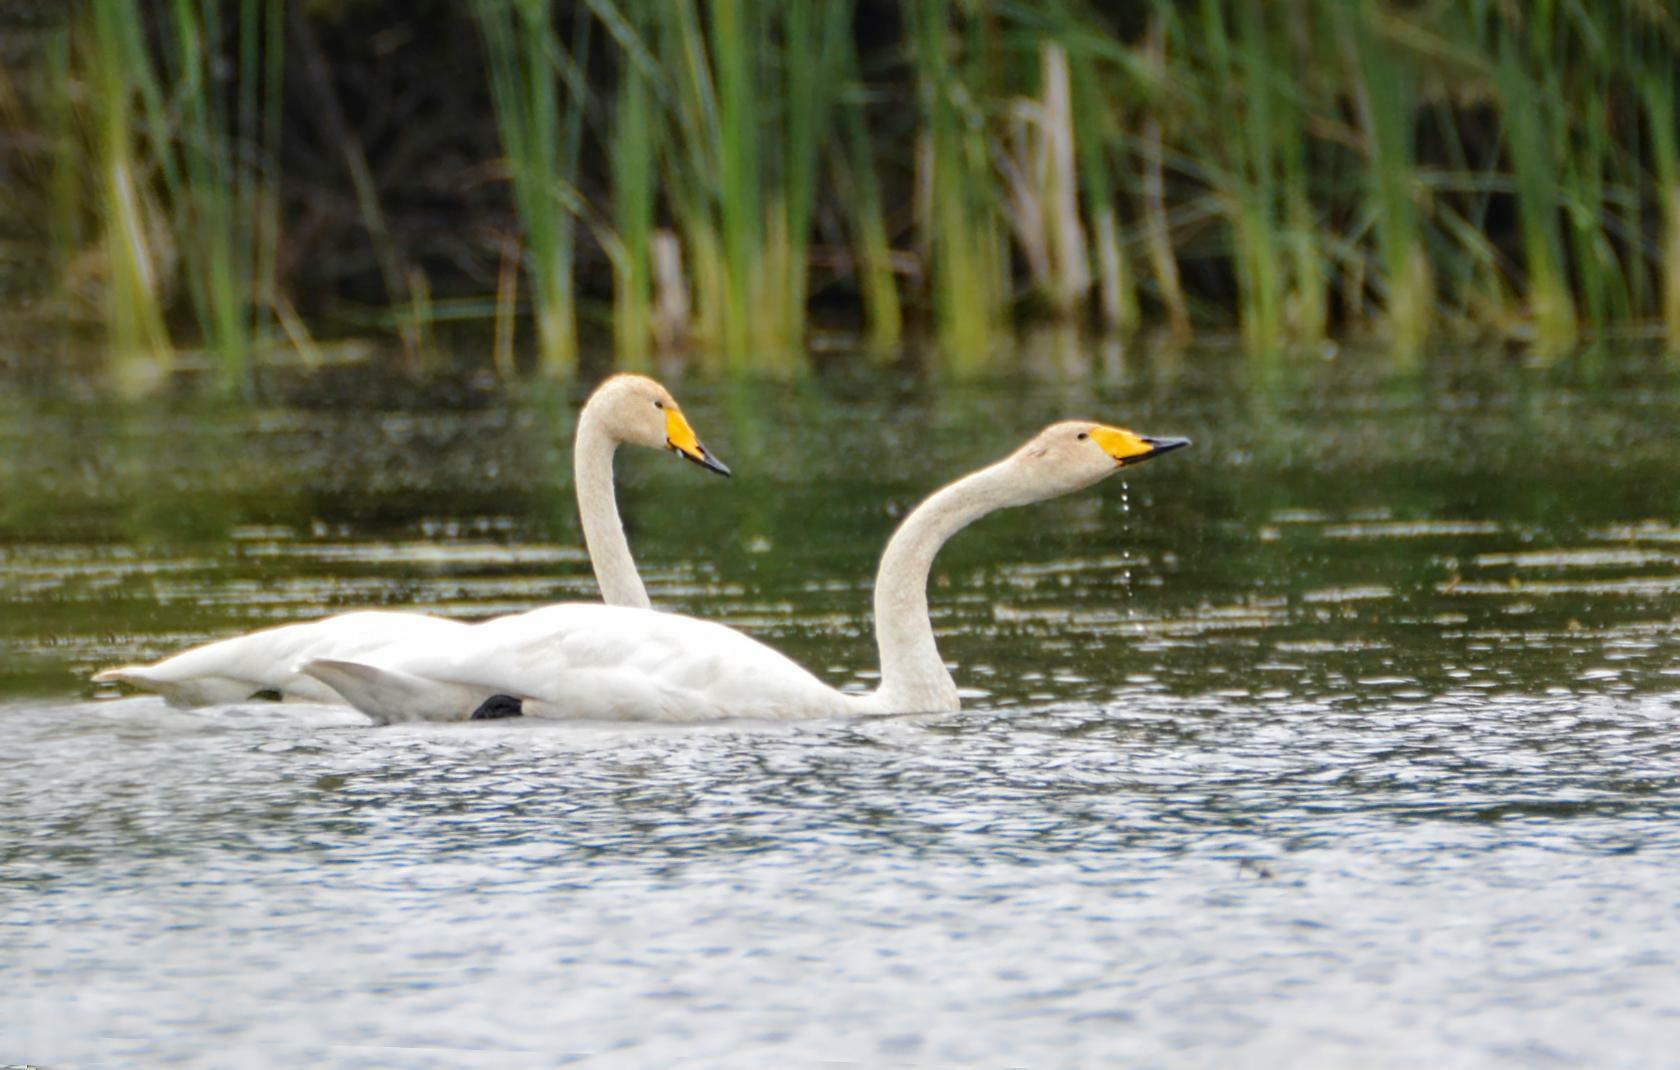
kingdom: Animalia
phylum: Chordata
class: Aves
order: Anseriformes
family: Anatidae
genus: Cygnus
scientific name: Cygnus cygnus
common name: Whooper swan
